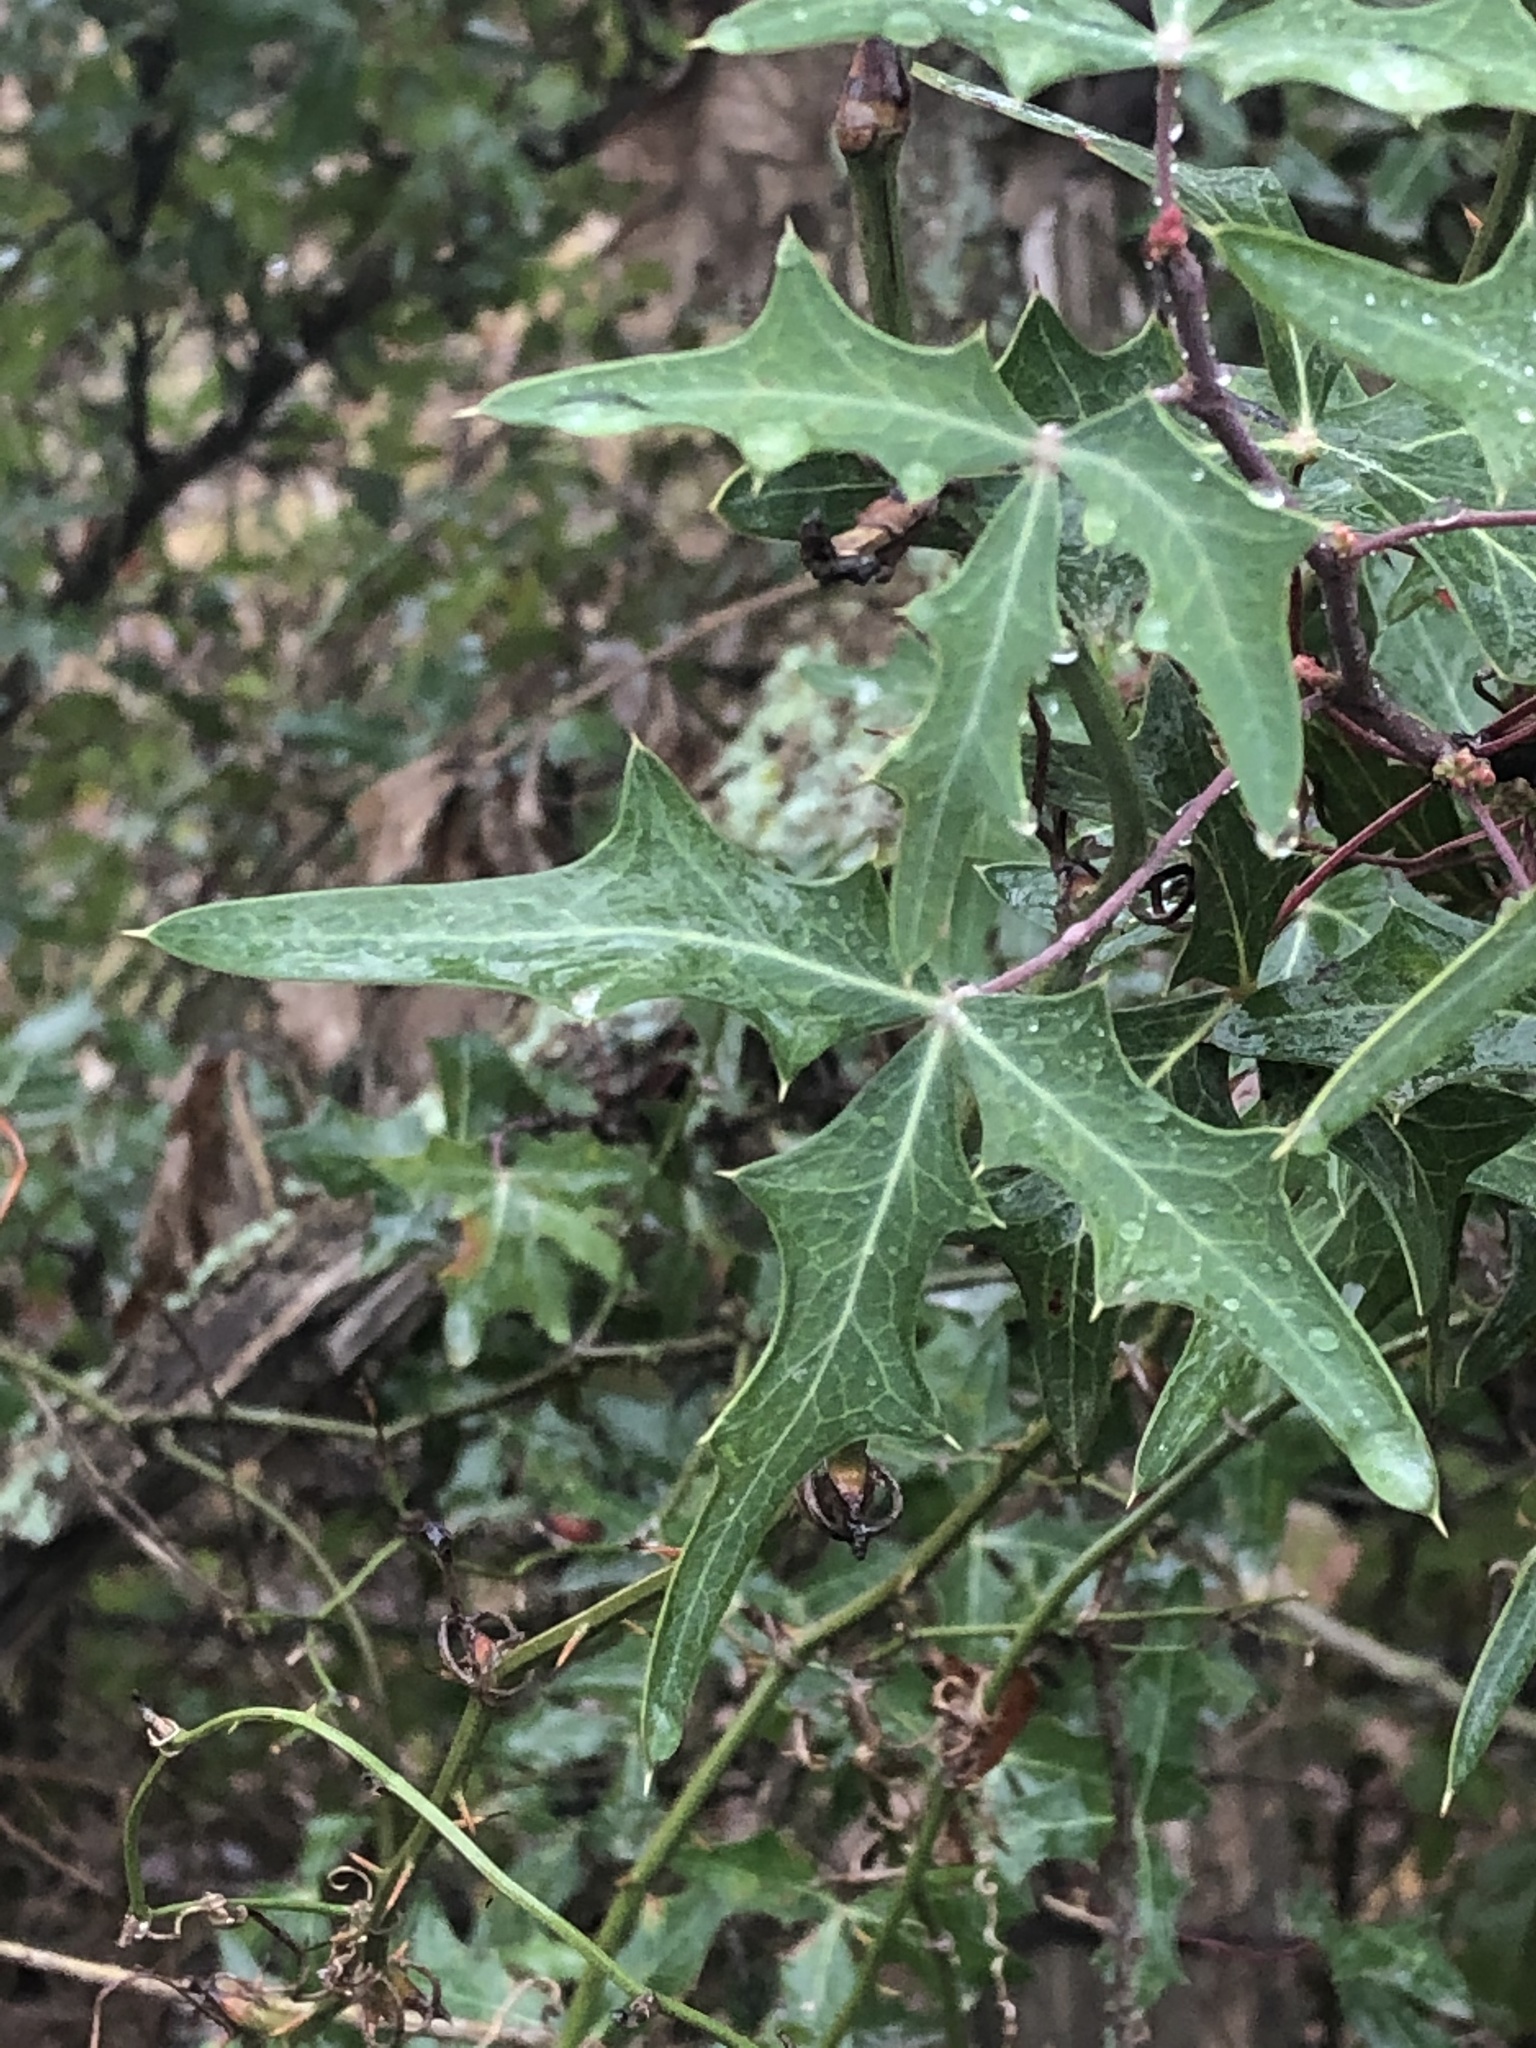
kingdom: Plantae
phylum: Tracheophyta
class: Magnoliopsida
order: Ranunculales
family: Berberidaceae
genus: Alloberberis
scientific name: Alloberberis trifoliolata
